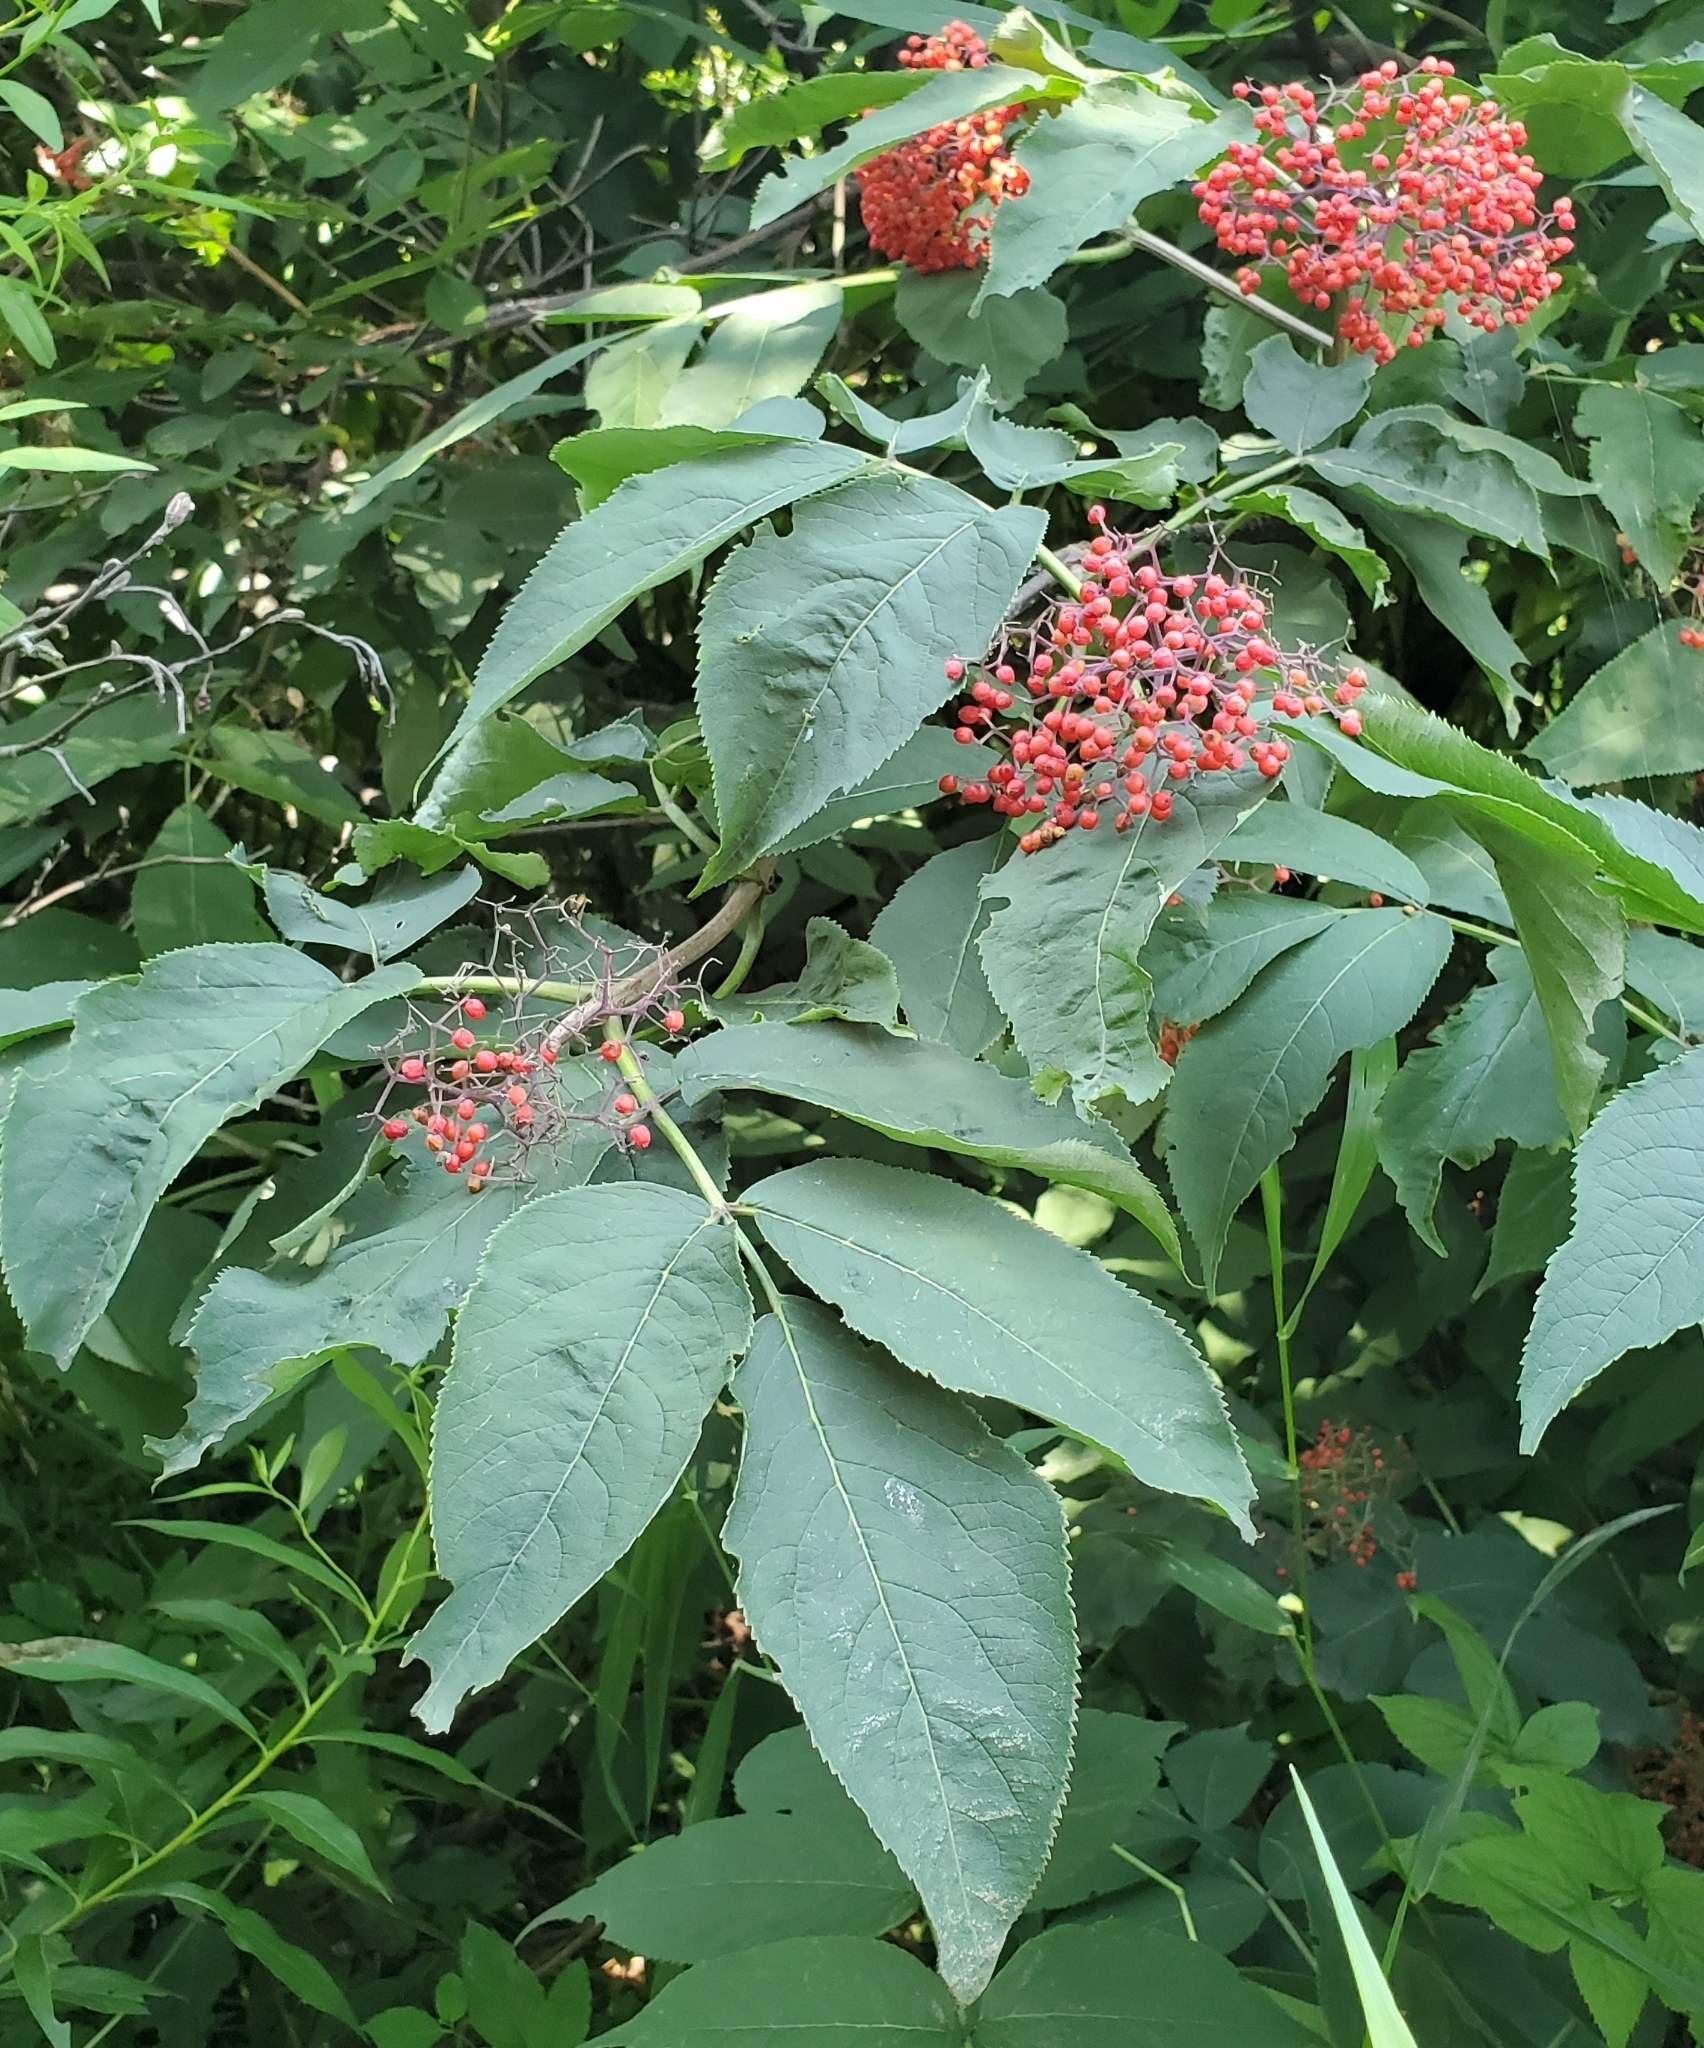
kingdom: Plantae
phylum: Tracheophyta
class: Magnoliopsida
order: Dipsacales
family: Viburnaceae
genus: Sambucus
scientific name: Sambucus racemosa
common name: Red-berried elder
